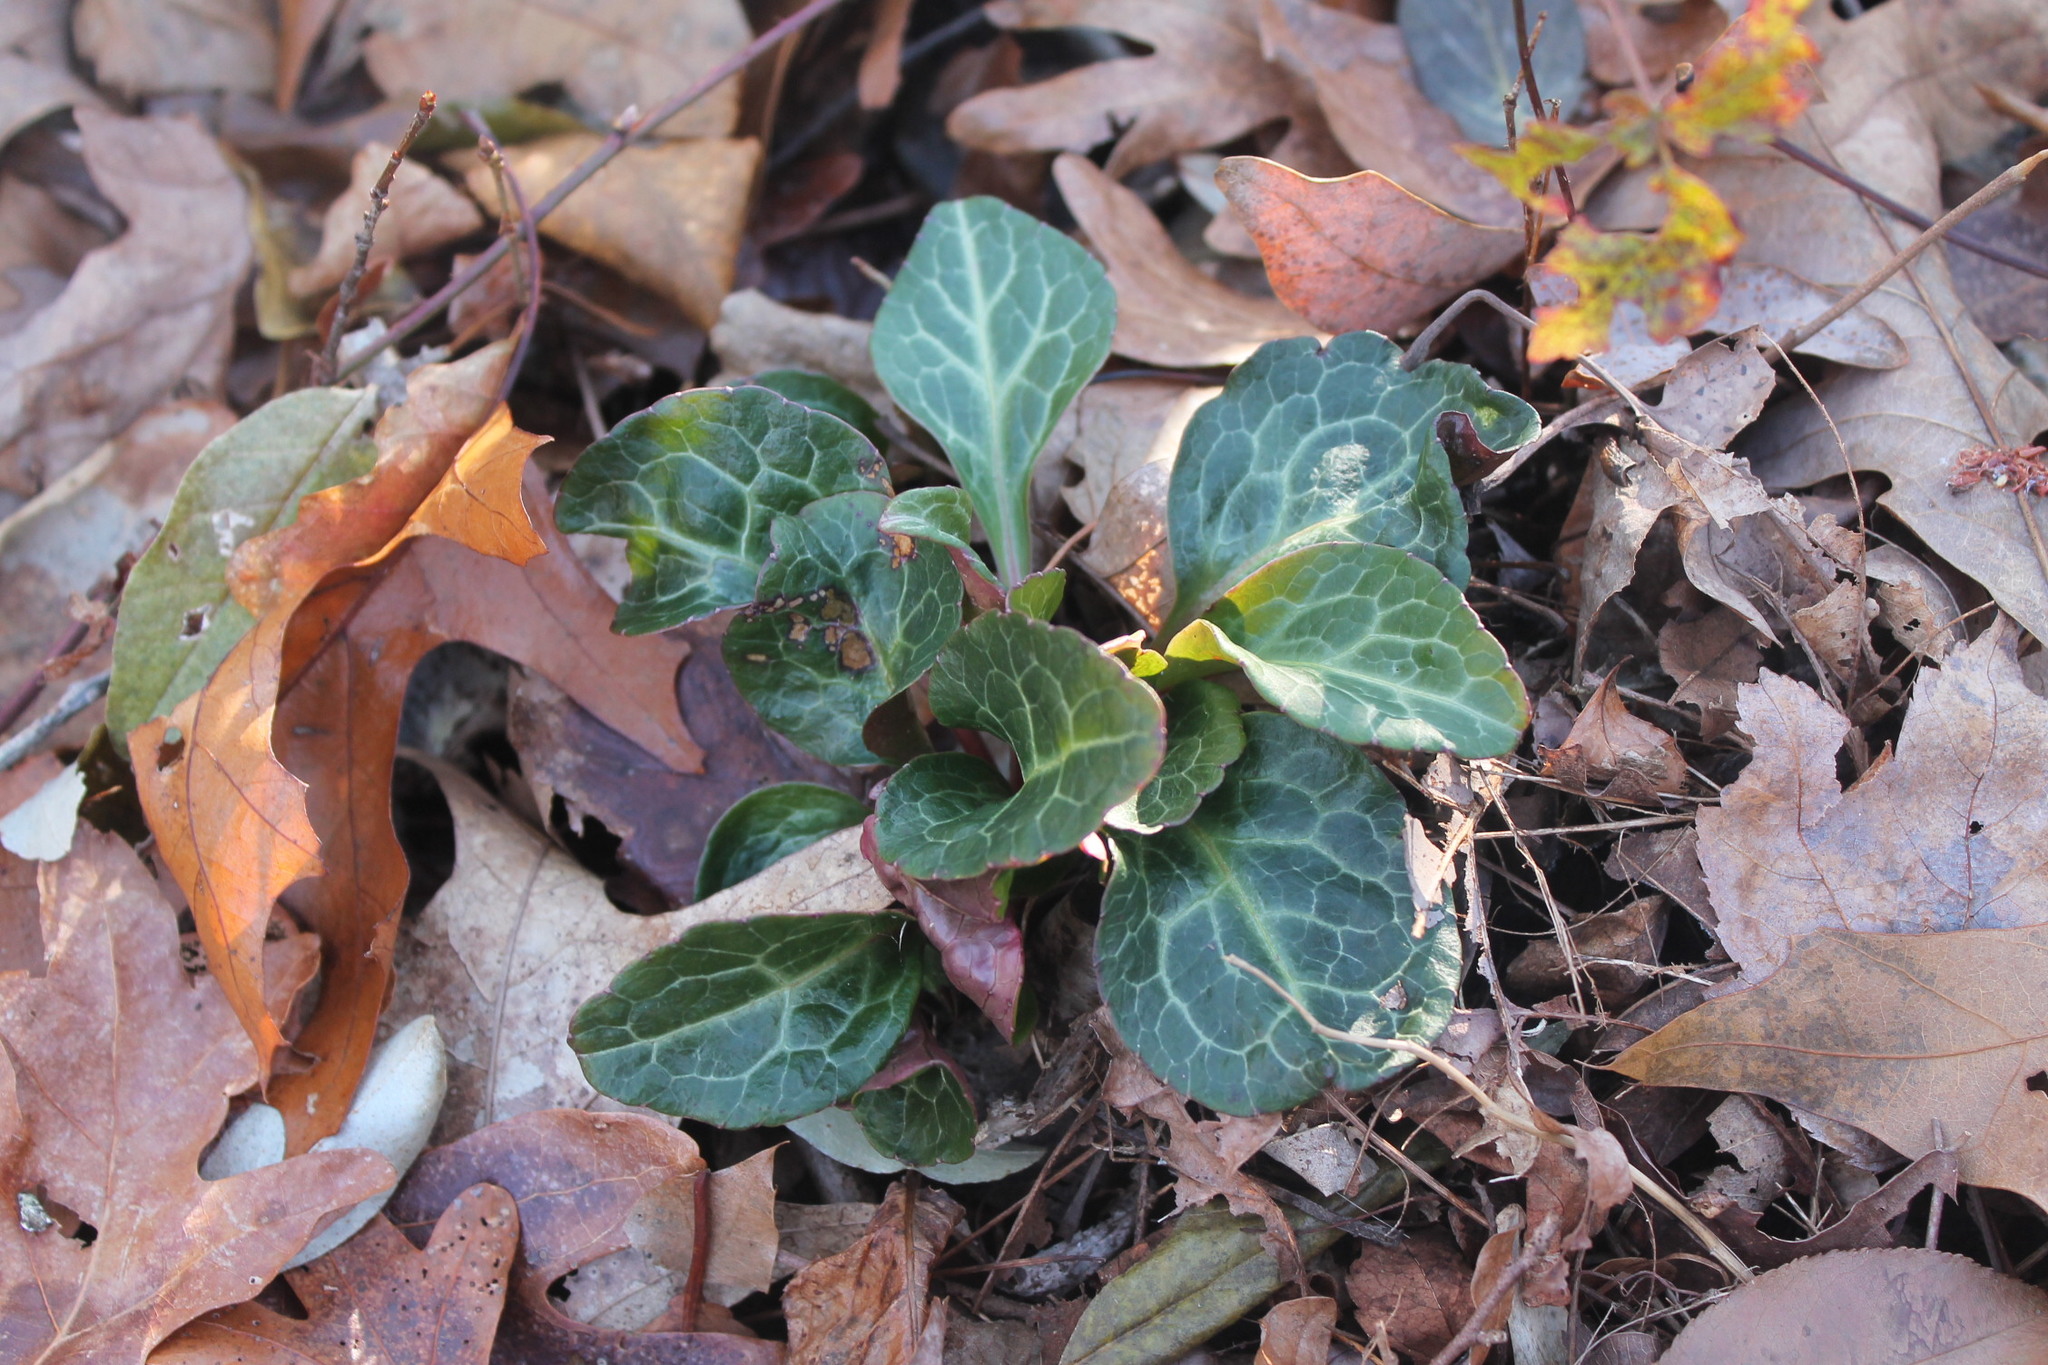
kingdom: Plantae
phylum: Tracheophyta
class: Magnoliopsida
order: Ericales
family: Ericaceae
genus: Pyrola
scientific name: Pyrola americana
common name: American wintergreen
